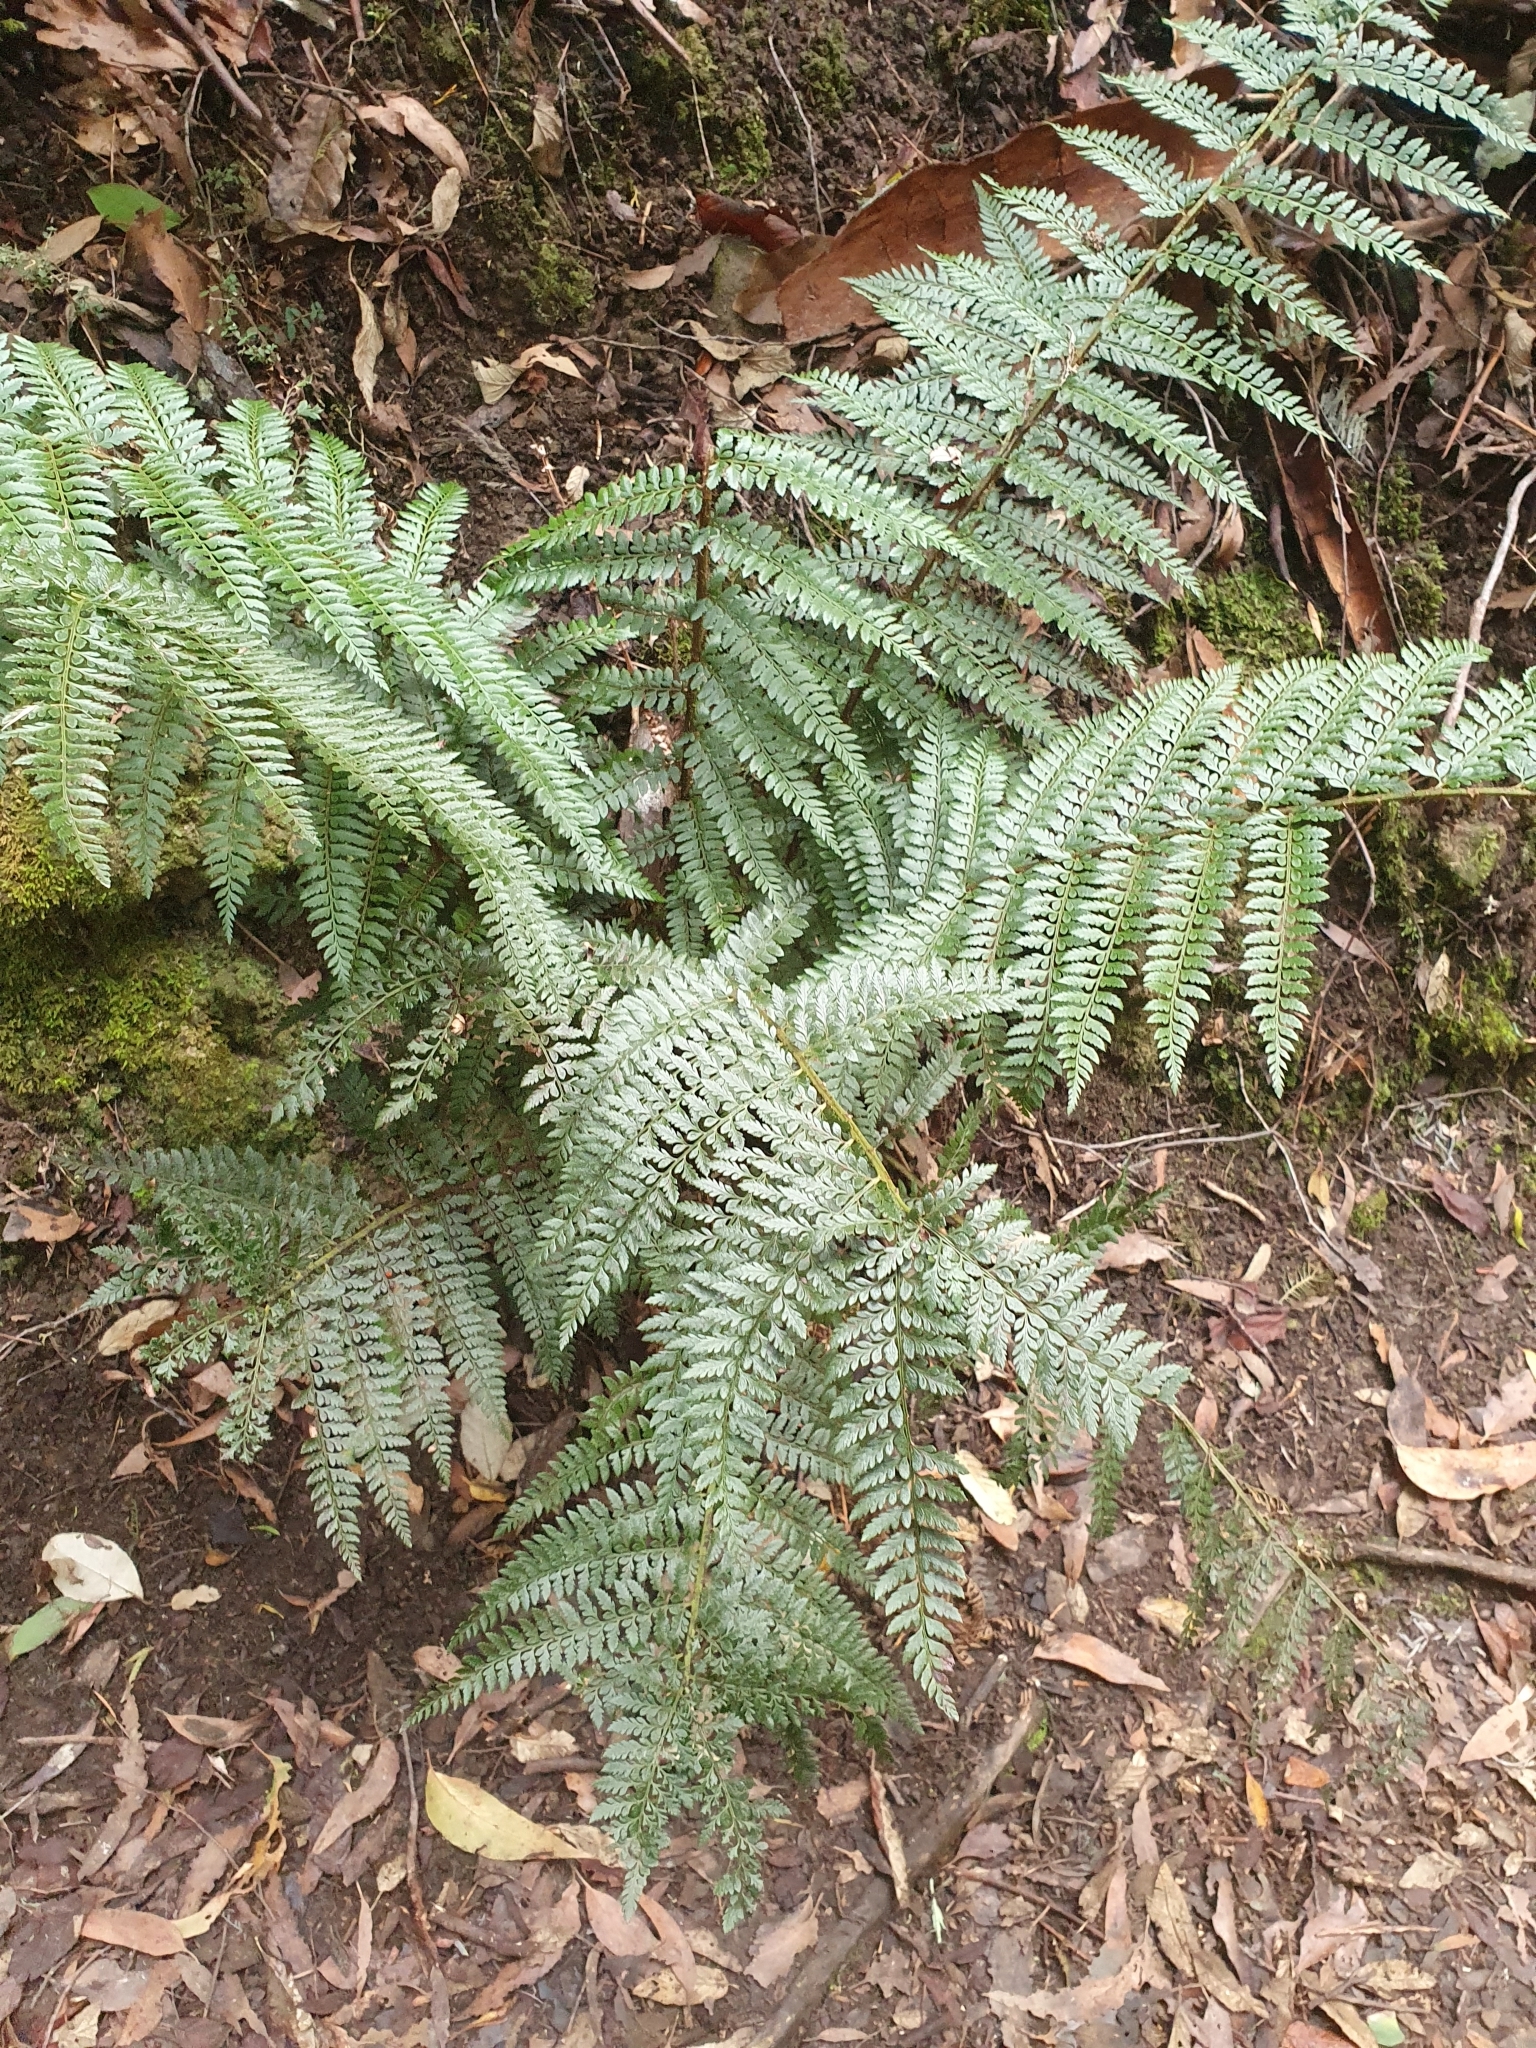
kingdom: Plantae
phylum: Tracheophyta
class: Polypodiopsida
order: Polypodiales
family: Dryopteridaceae
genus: Polystichum
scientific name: Polystichum proliferum
